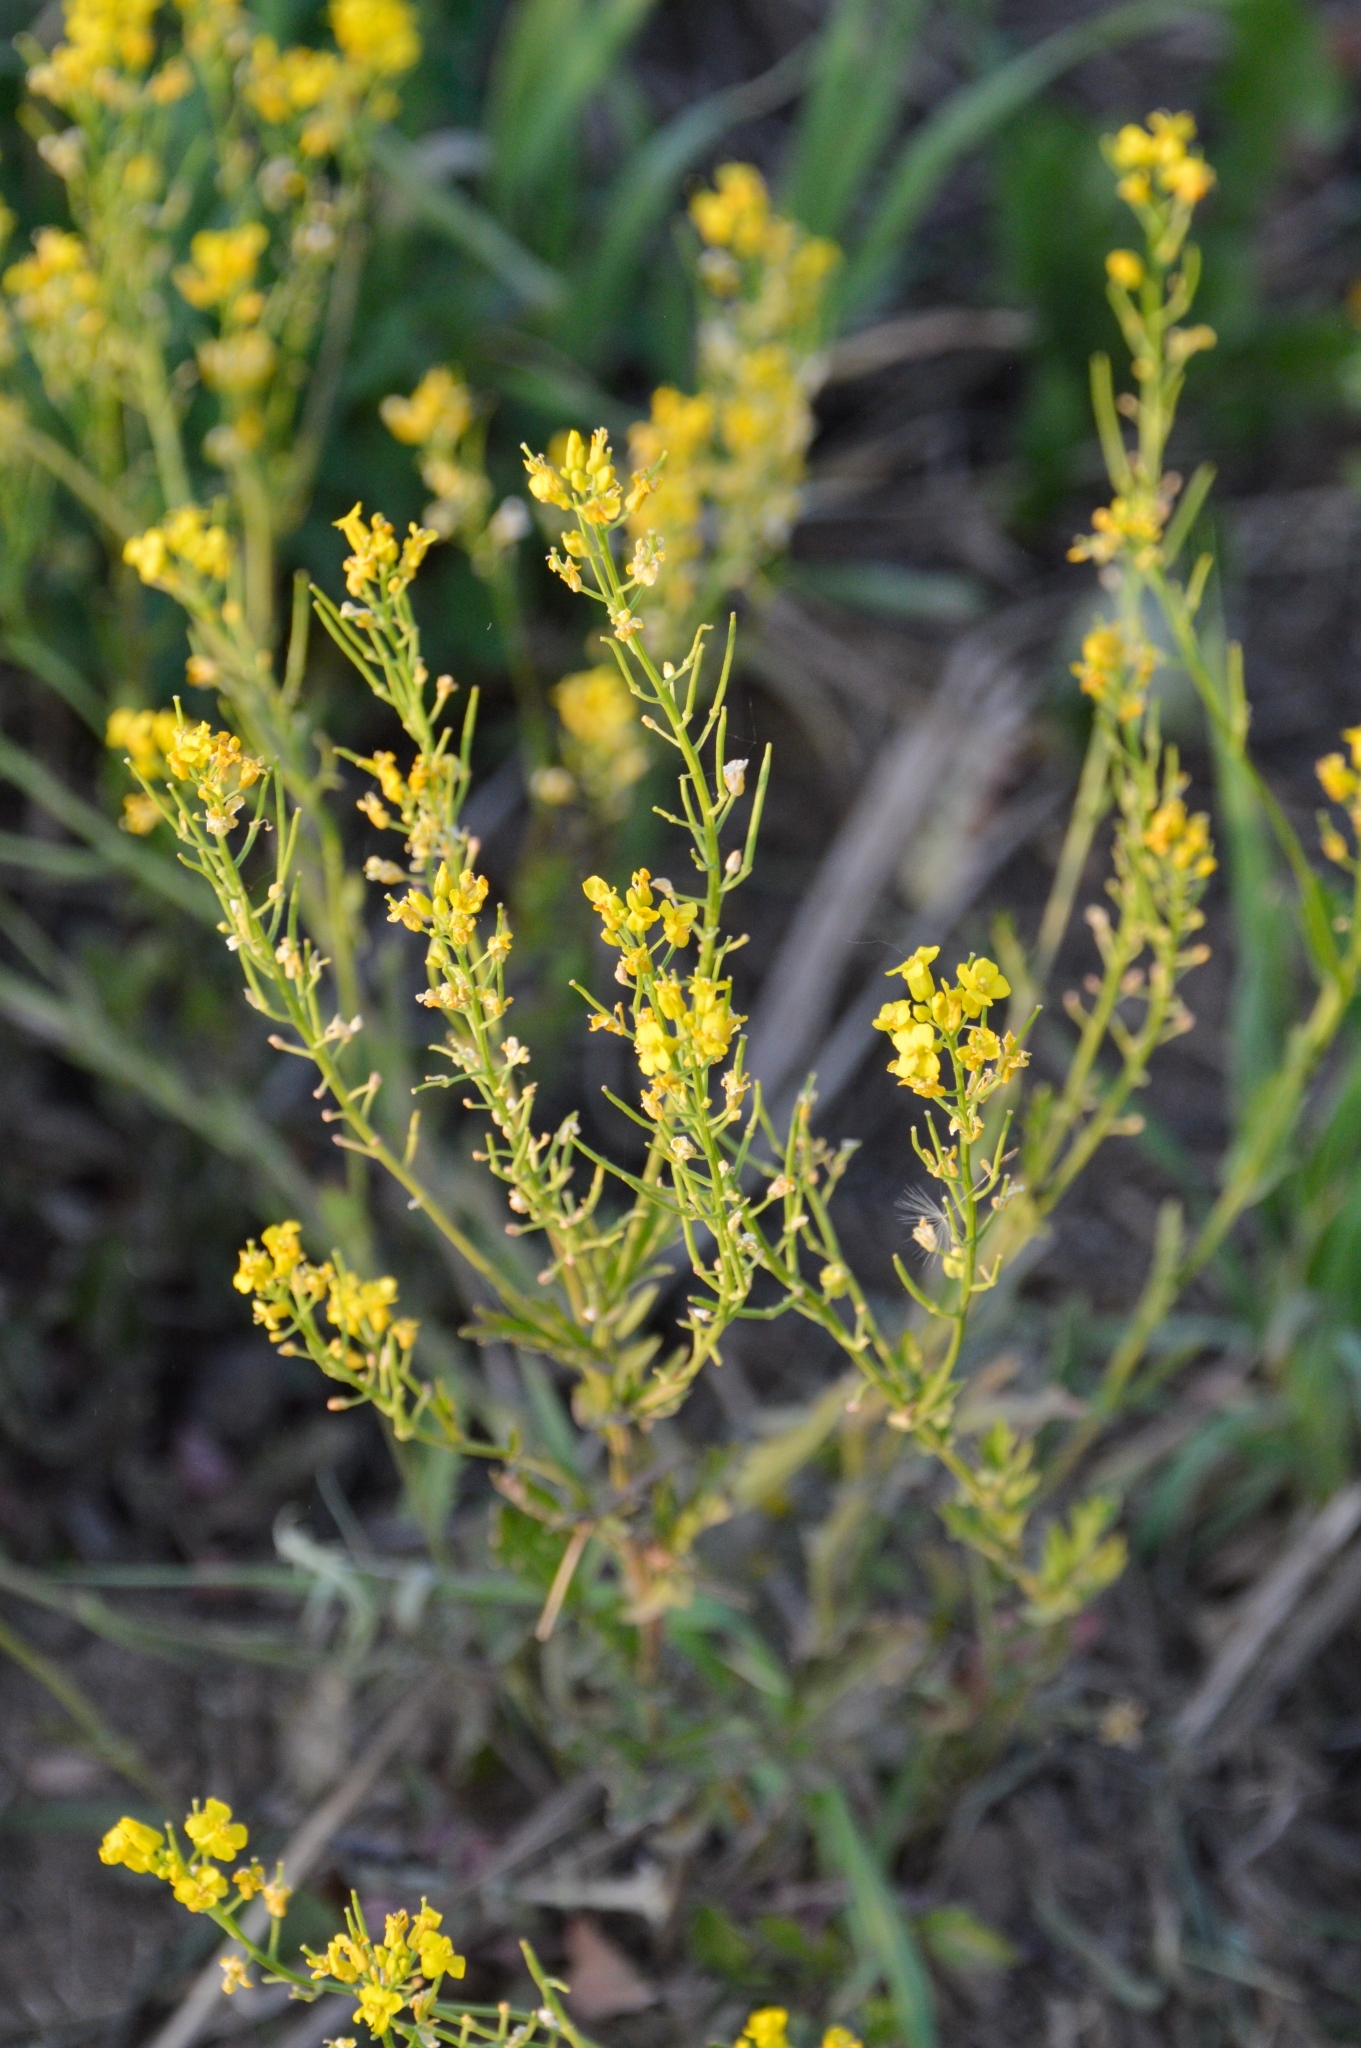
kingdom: Plantae
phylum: Tracheophyta
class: Magnoliopsida
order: Brassicales
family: Brassicaceae
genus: Barbarea
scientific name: Barbarea vulgaris
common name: Cressy-greens
